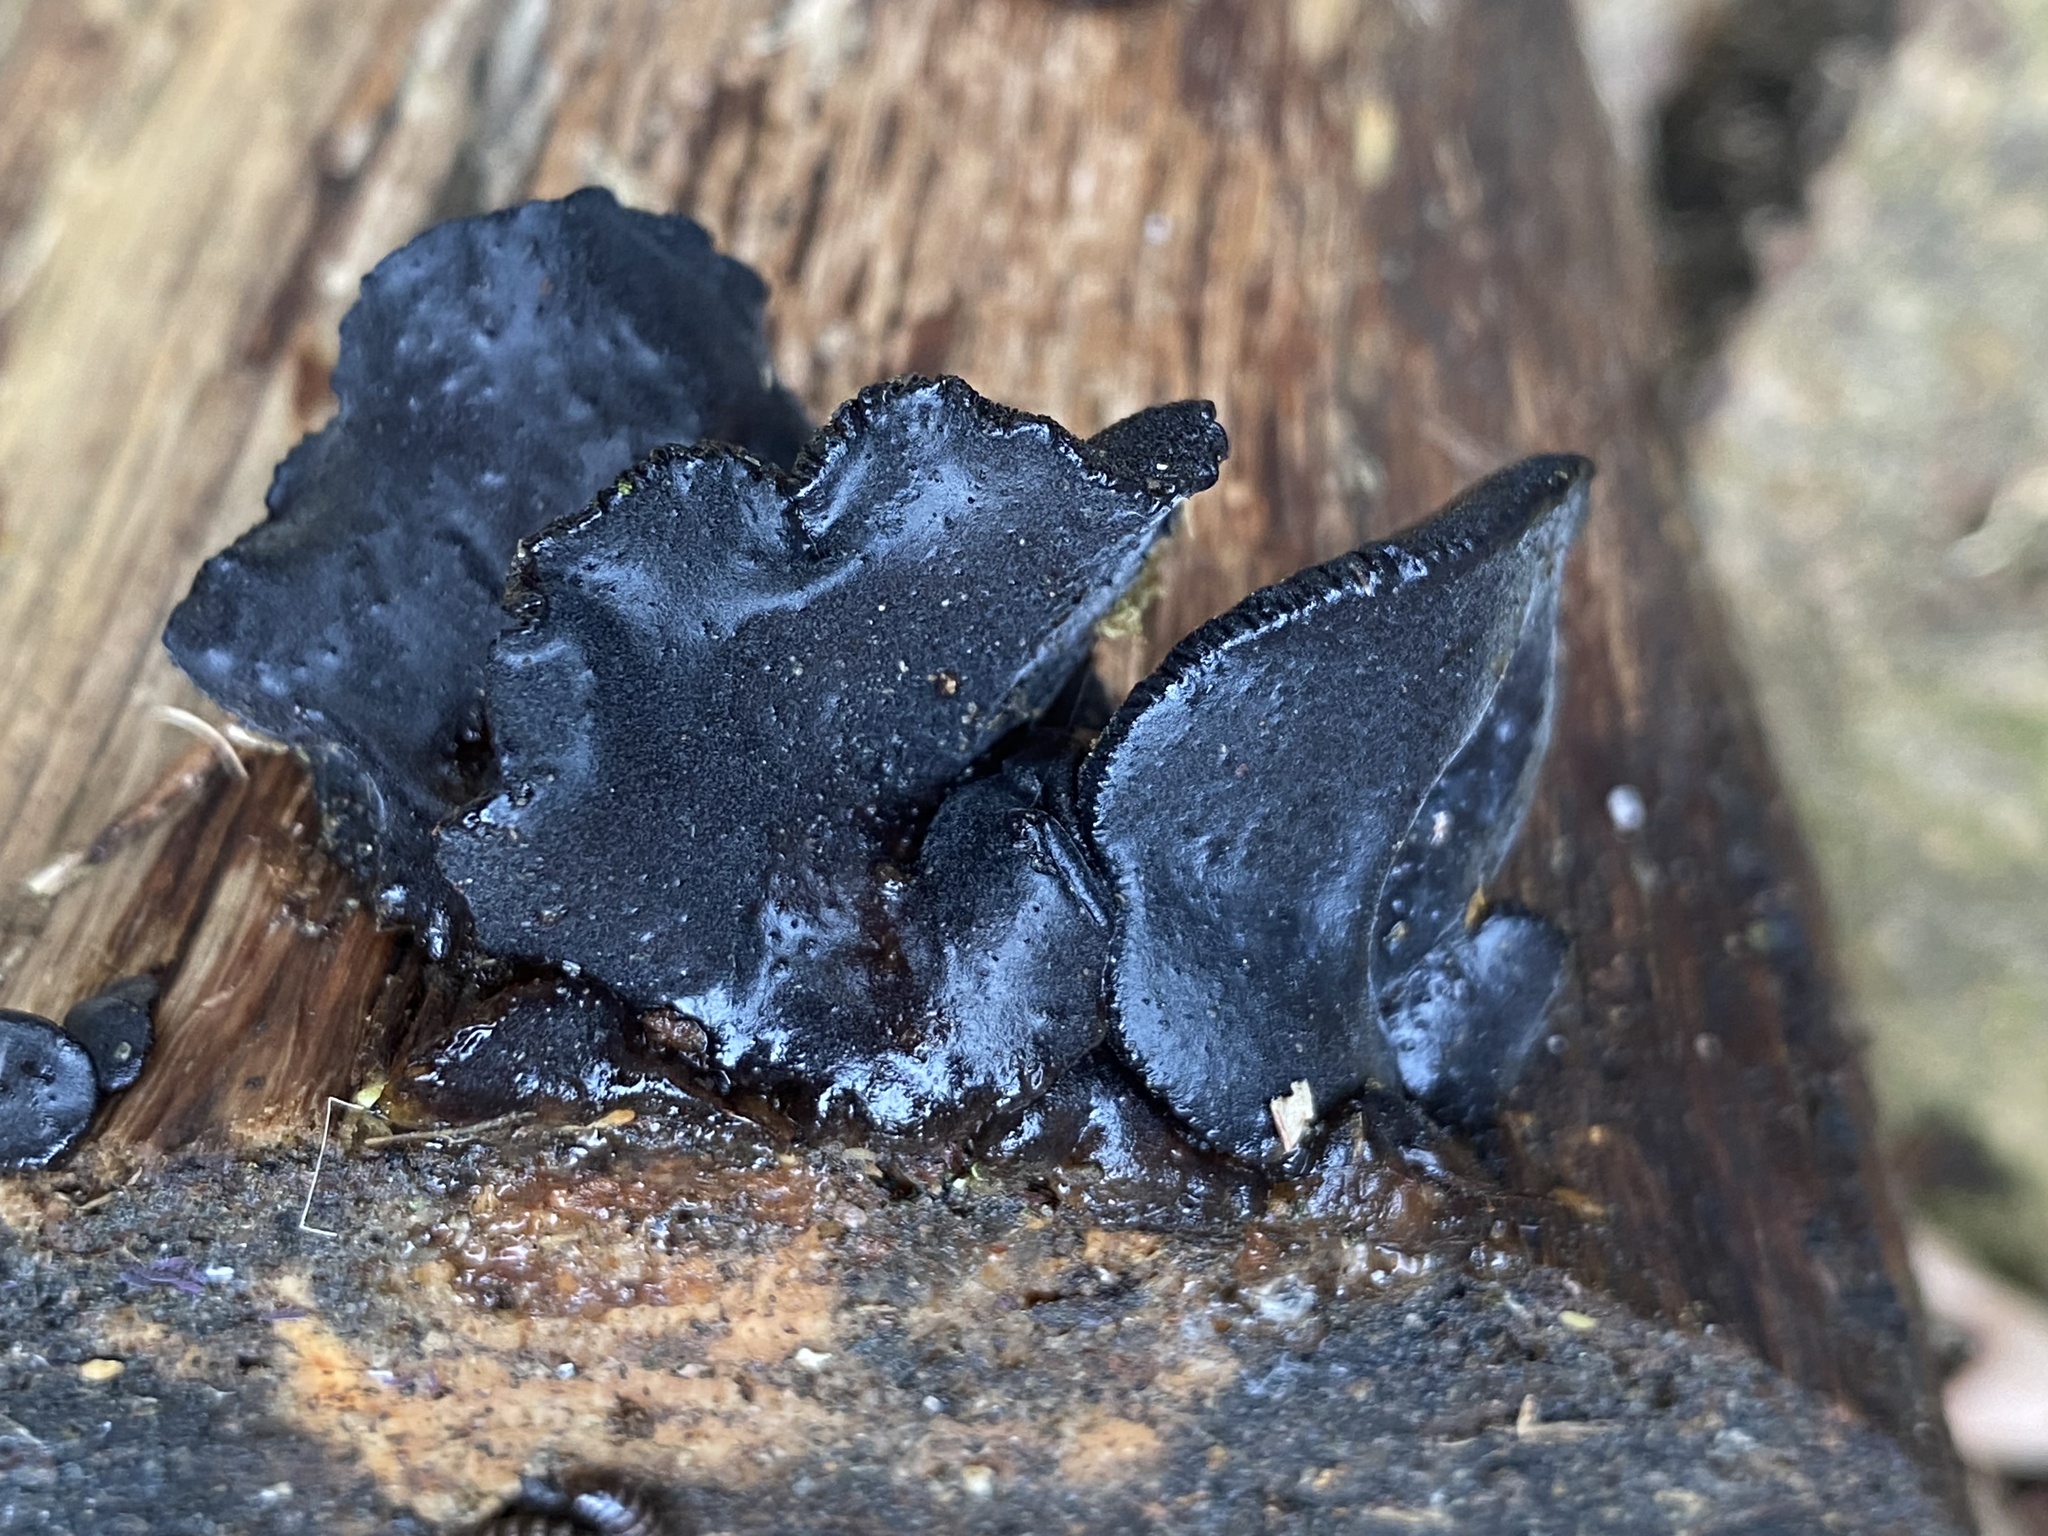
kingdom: Fungi
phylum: Basidiomycota
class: Agaricomycetes
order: Auriculariales
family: Auriculariaceae
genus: Exidia
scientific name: Exidia glandulosa
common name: Witches' butter
